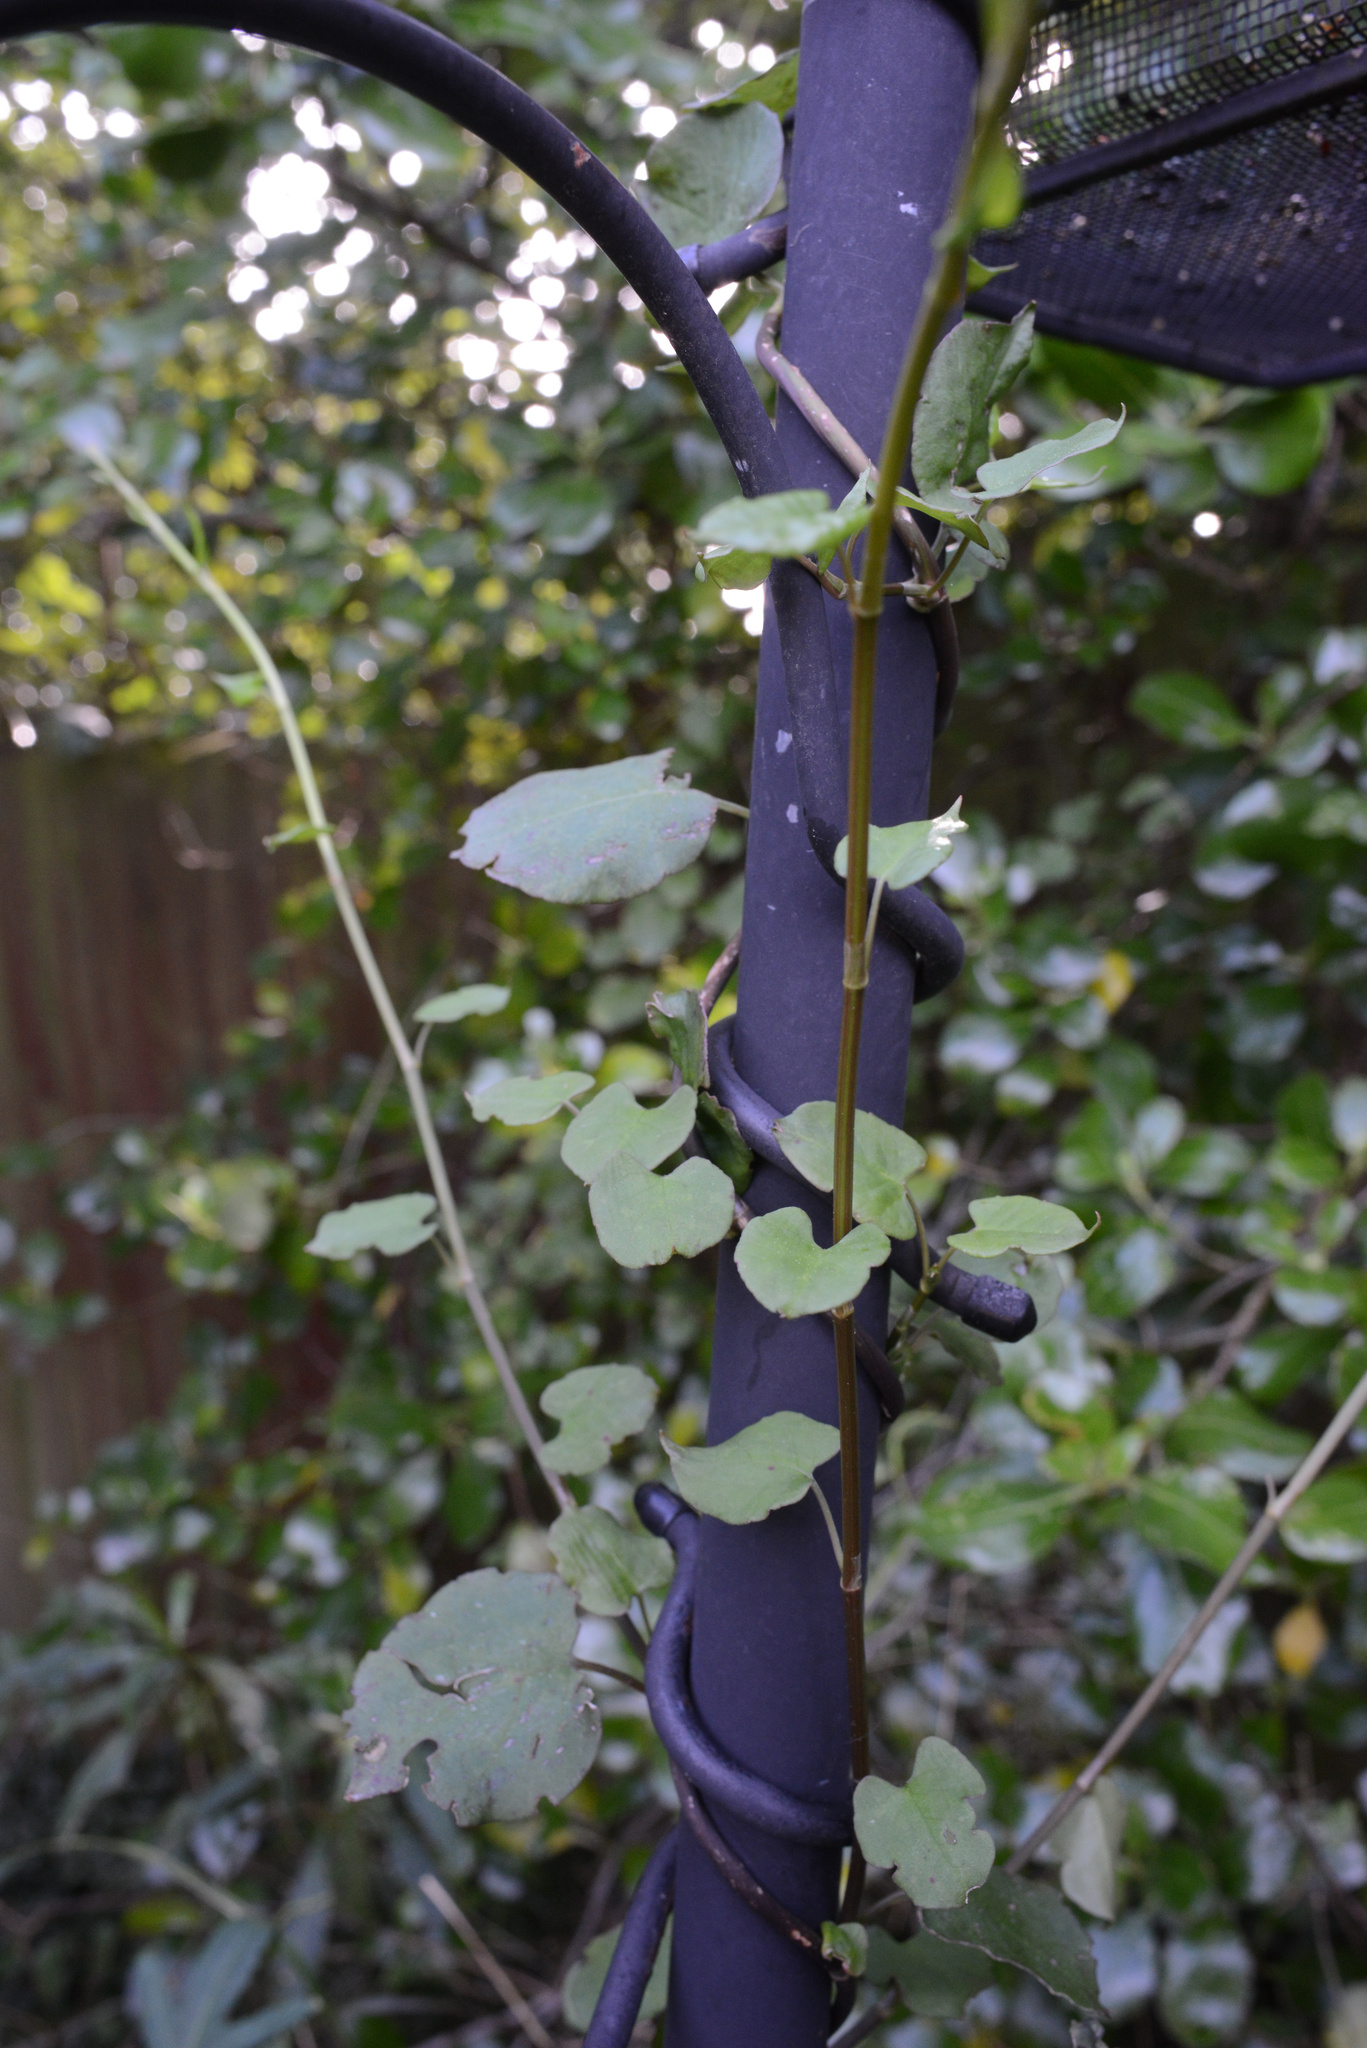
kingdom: Plantae
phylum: Tracheophyta
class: Magnoliopsida
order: Caryophyllales
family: Polygonaceae
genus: Muehlenbeckia
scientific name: Muehlenbeckia australis
